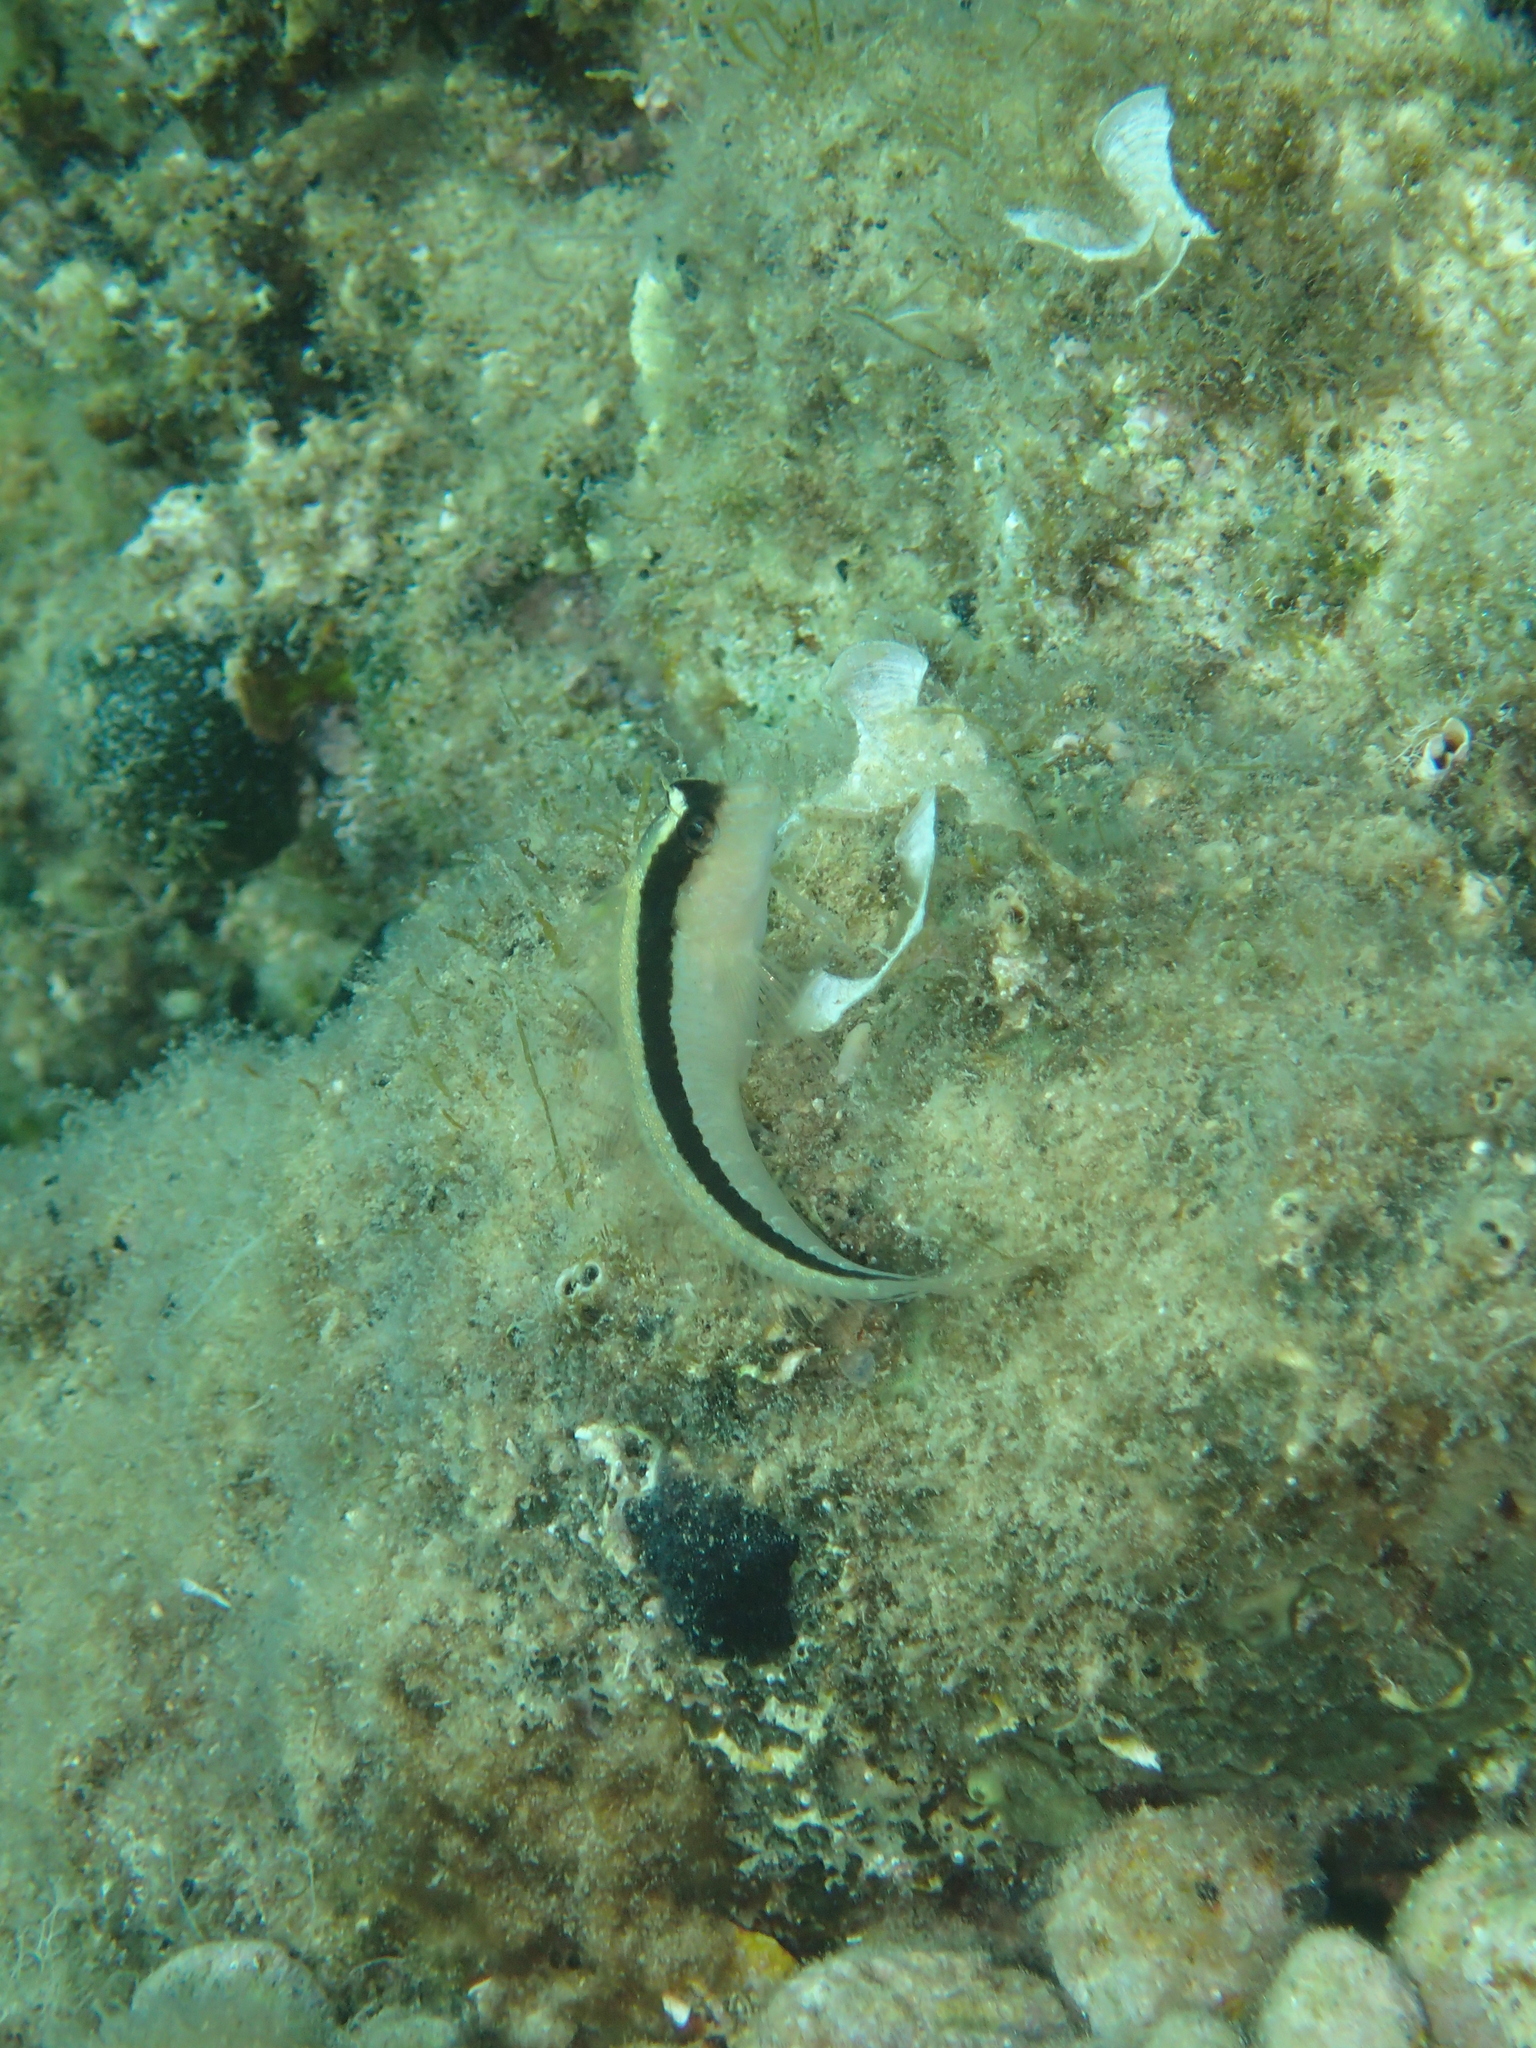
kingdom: Animalia
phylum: Chordata
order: Perciformes
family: Blenniidae
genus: Parablennius
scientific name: Parablennius rouxi
